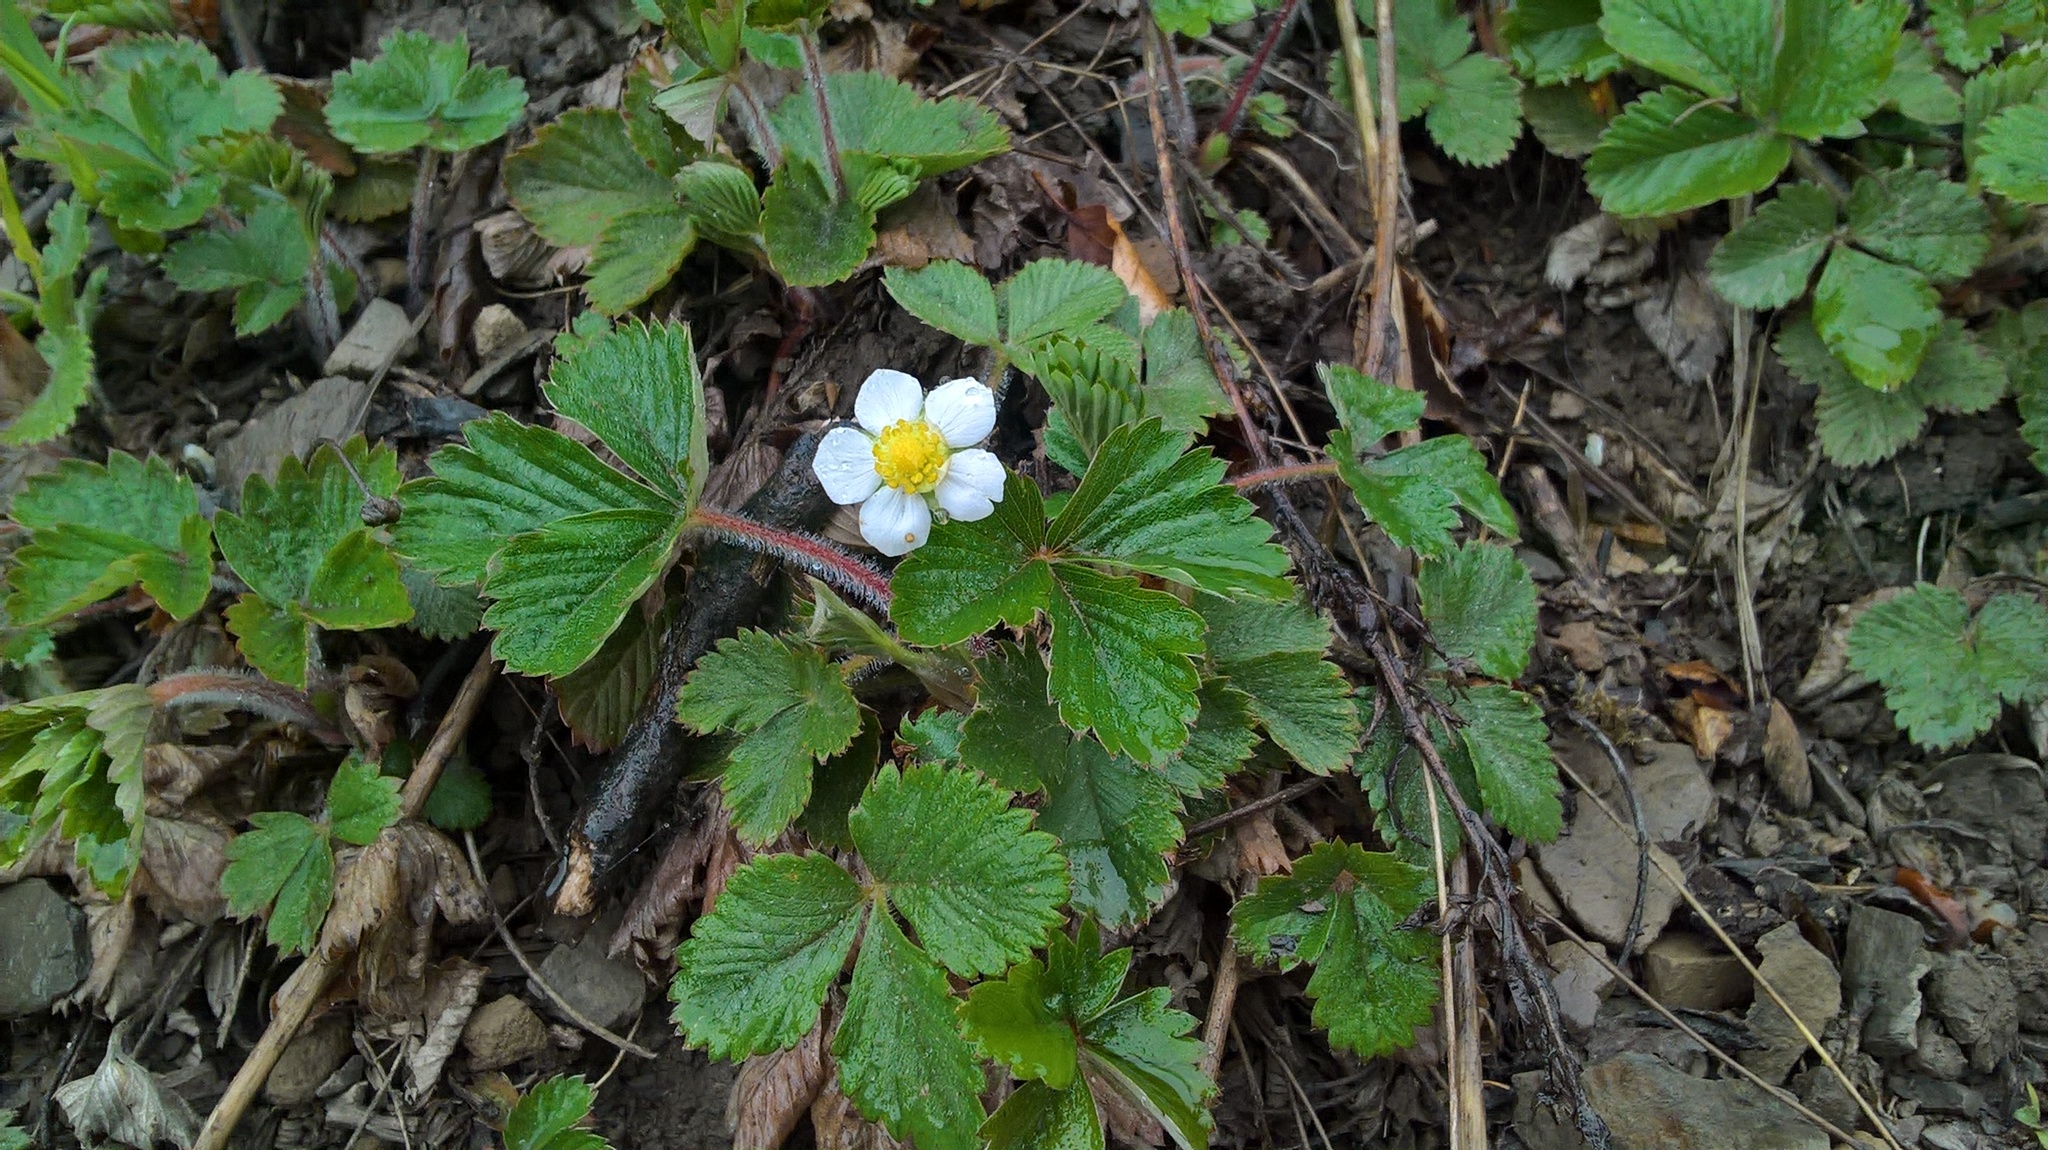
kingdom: Plantae
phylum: Tracheophyta
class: Magnoliopsida
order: Rosales
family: Rosaceae
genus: Fragaria
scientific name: Fragaria vesca
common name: Wild strawberry
